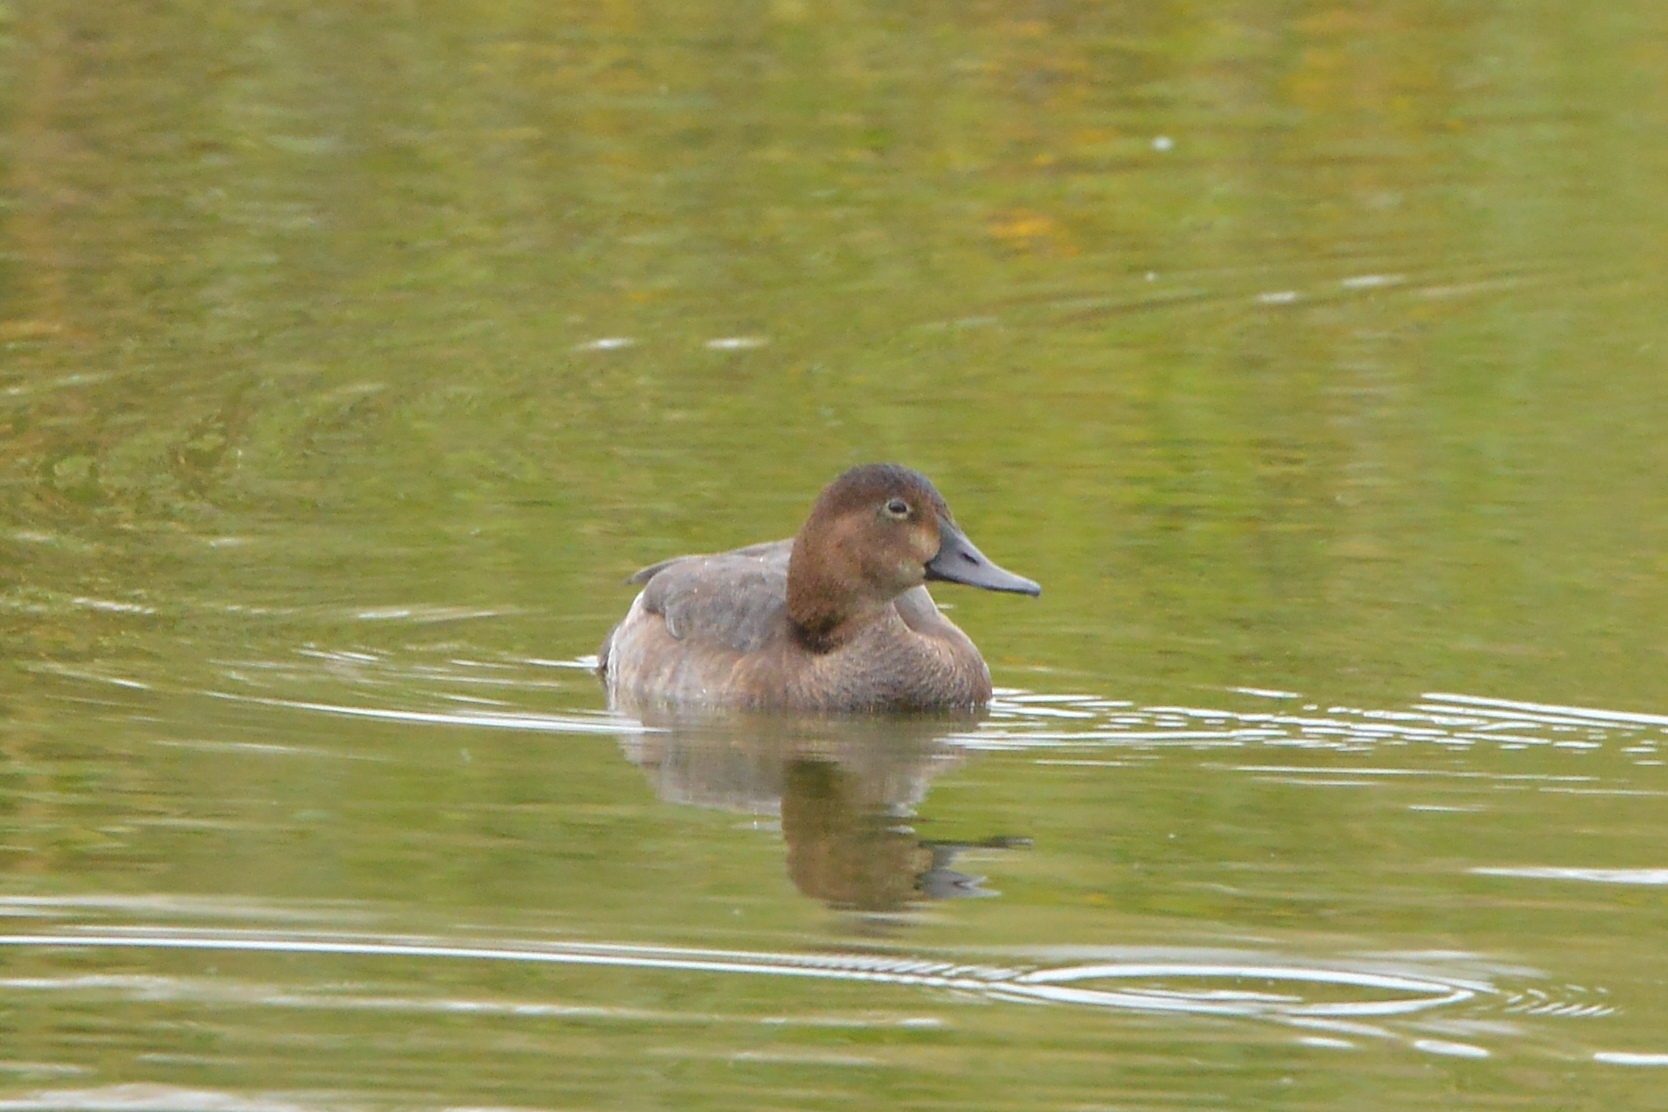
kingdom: Animalia
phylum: Chordata
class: Aves
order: Anseriformes
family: Anatidae
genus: Aythya
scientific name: Aythya ferina
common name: Common pochard
